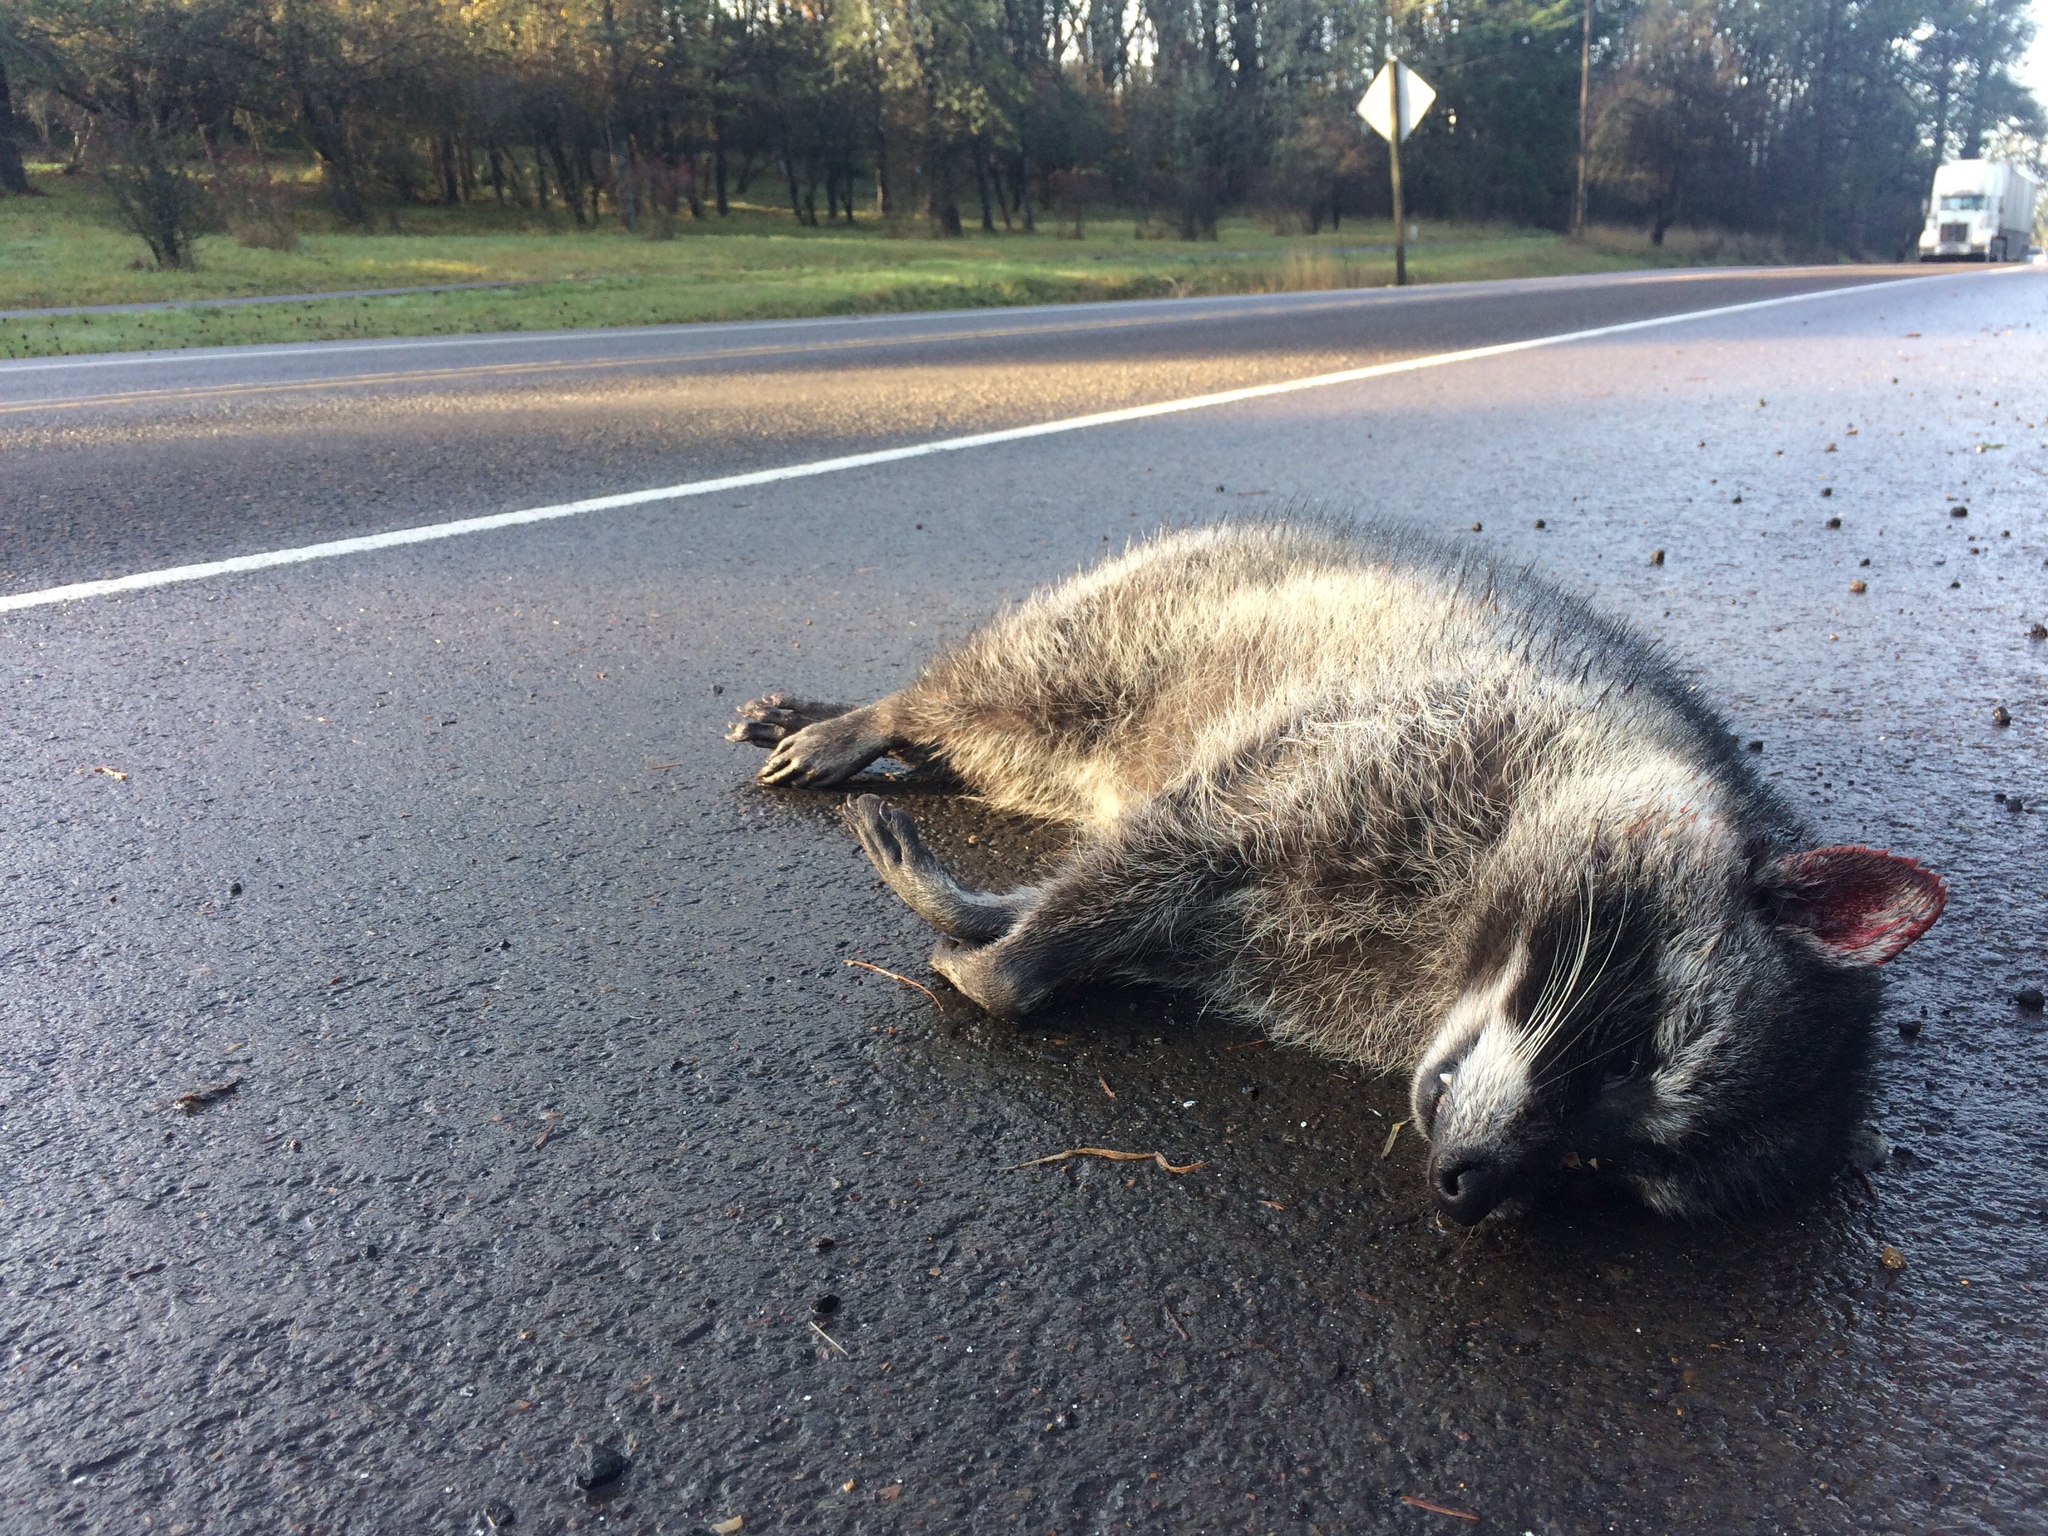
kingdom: Animalia
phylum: Chordata
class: Mammalia
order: Carnivora
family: Procyonidae
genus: Procyon
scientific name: Procyon lotor
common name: Raccoon
